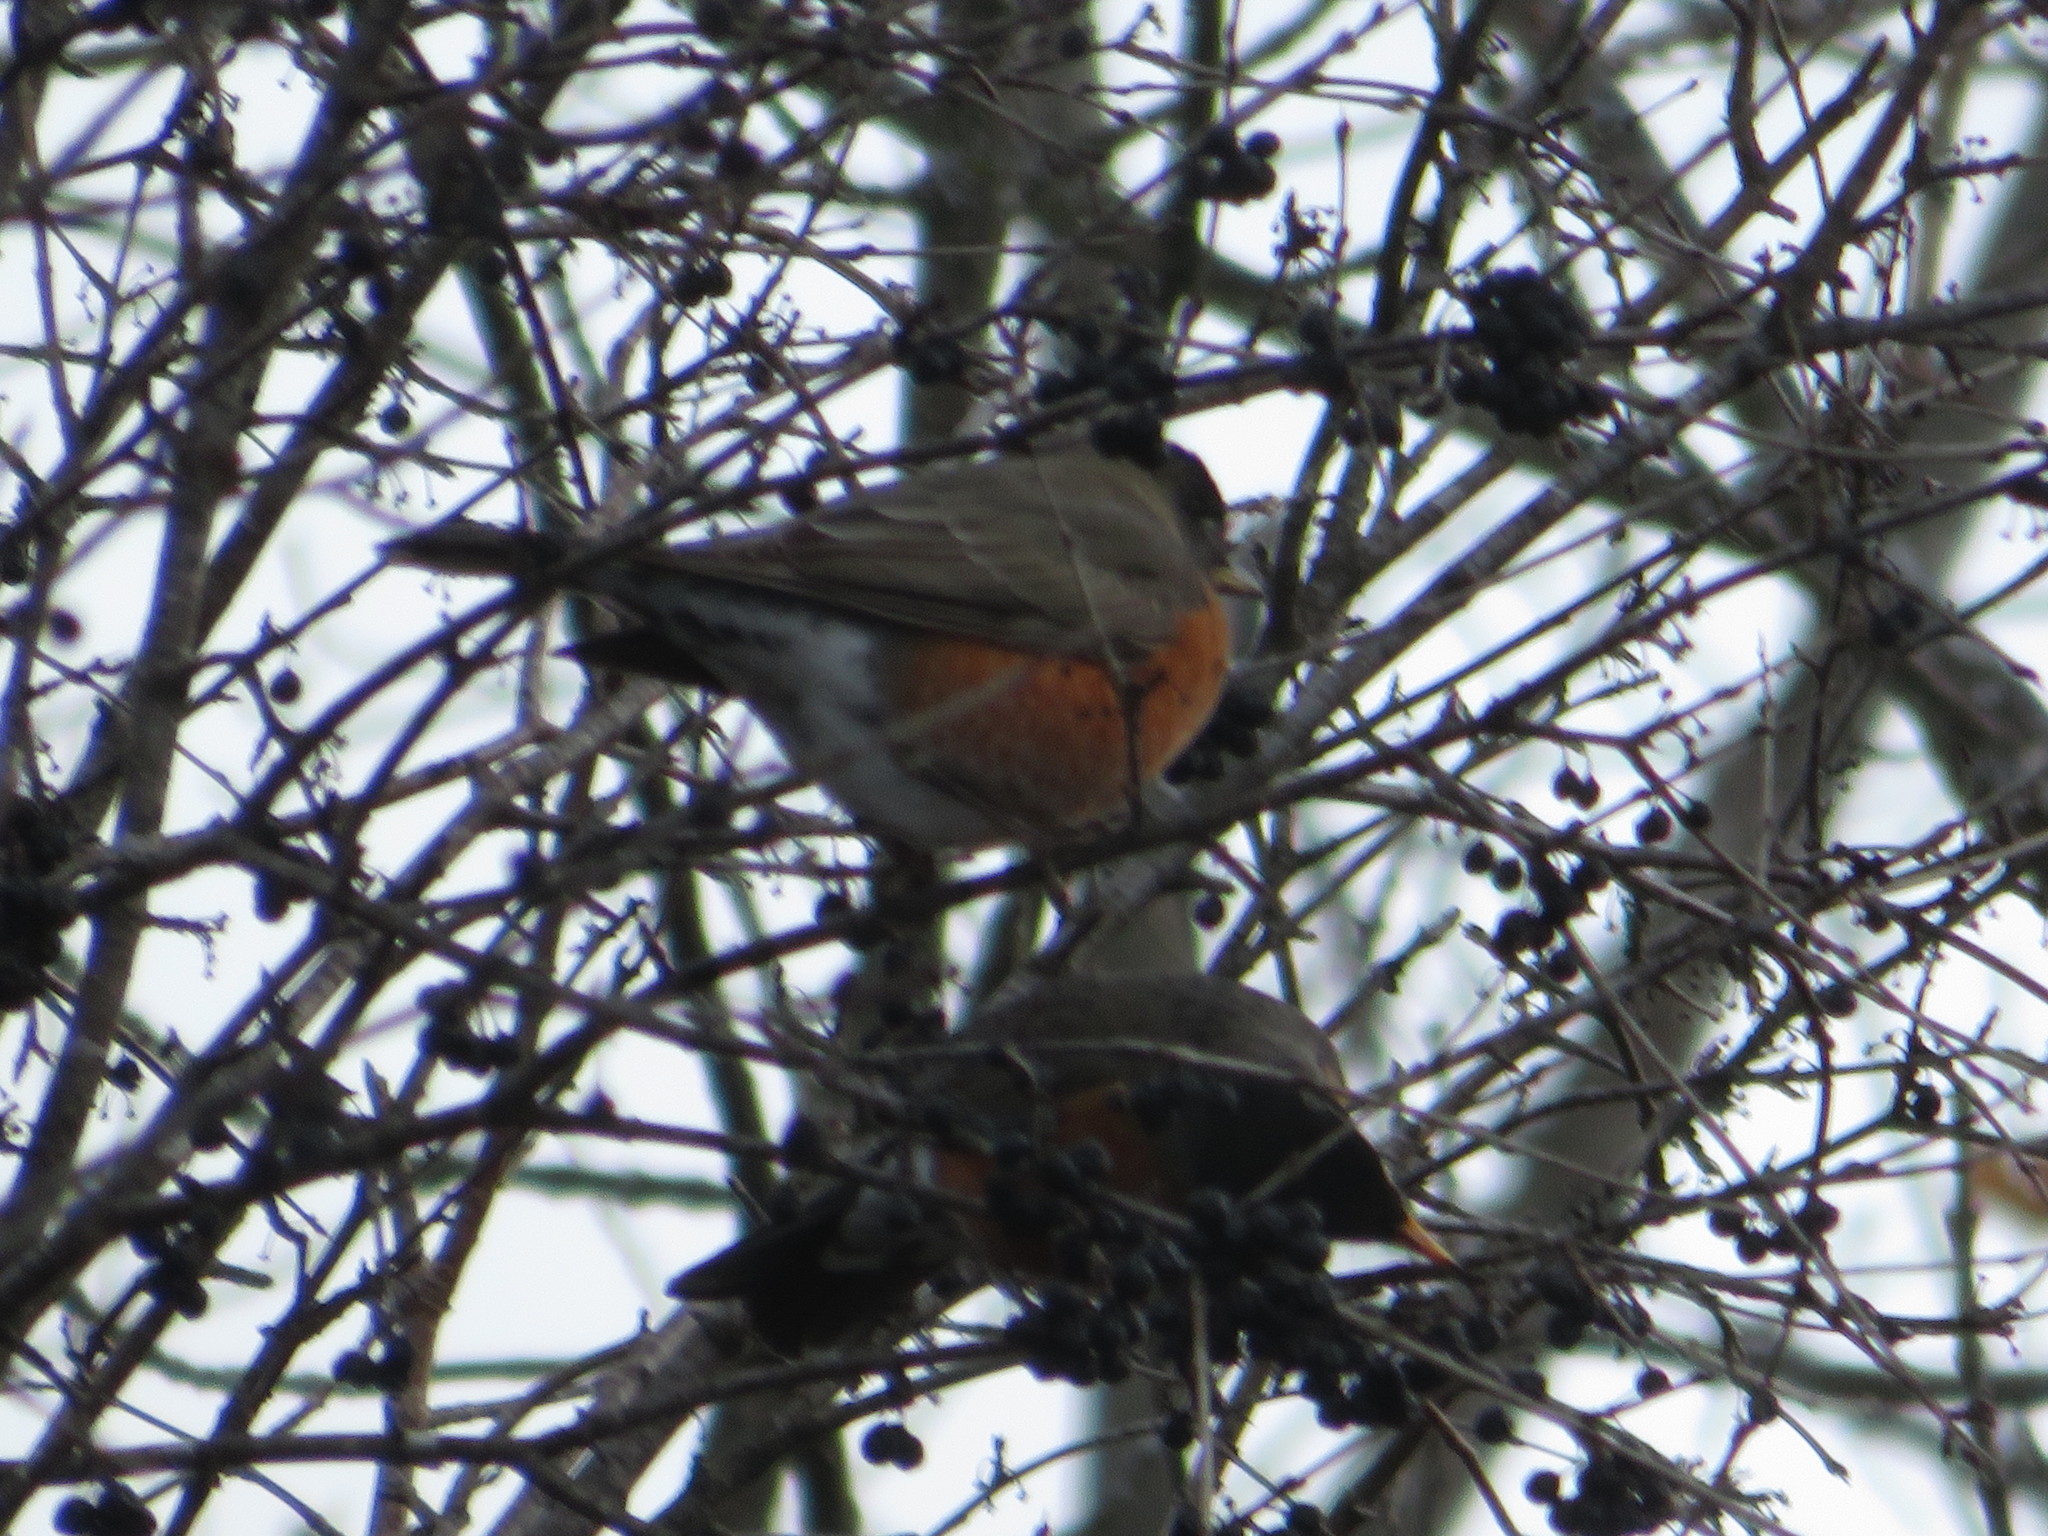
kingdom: Animalia
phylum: Chordata
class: Aves
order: Passeriformes
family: Turdidae
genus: Turdus
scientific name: Turdus migratorius
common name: American robin
